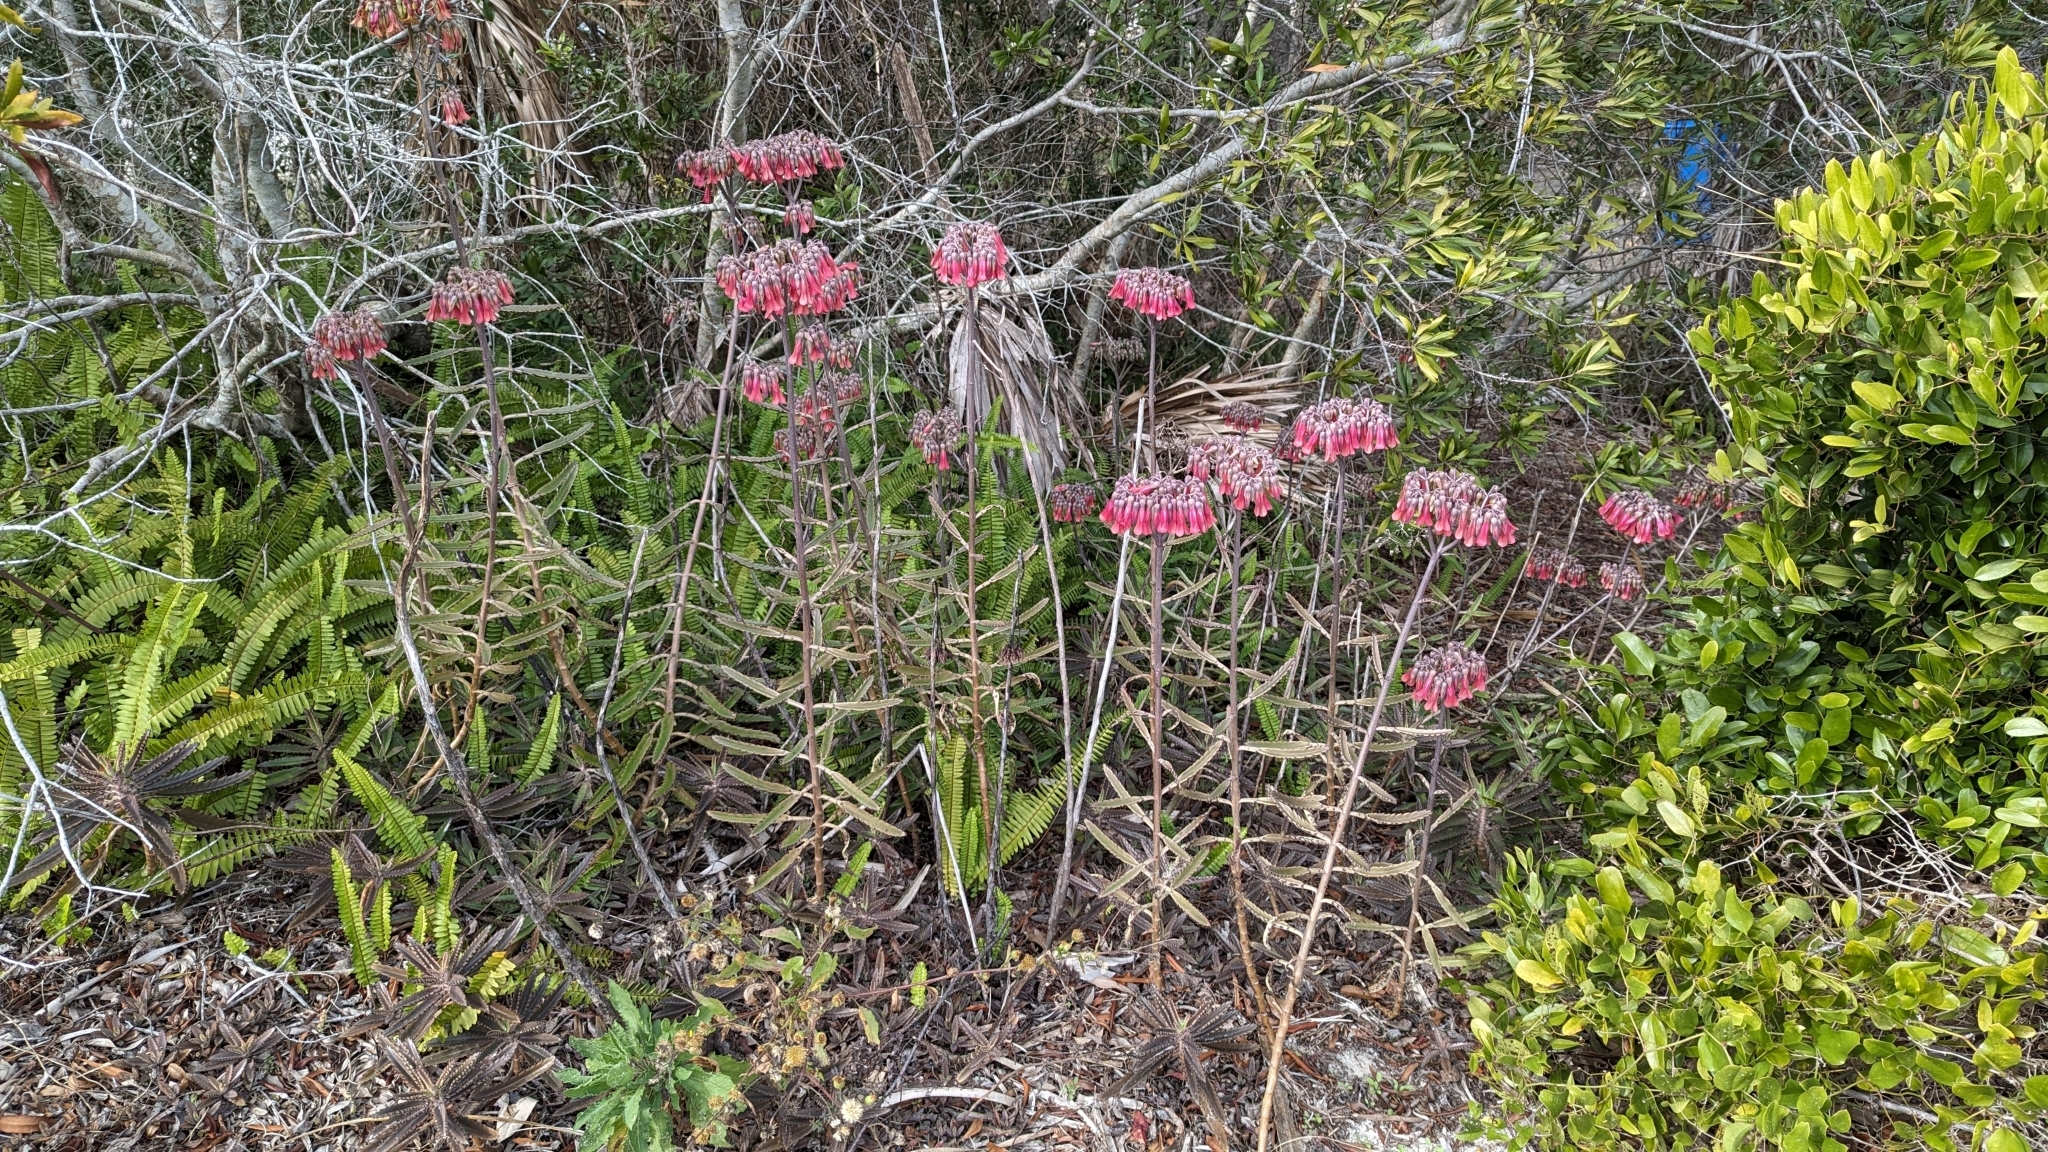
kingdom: Plantae
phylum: Tracheophyta
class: Magnoliopsida
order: Saxifragales
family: Crassulaceae
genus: Kalanchoe
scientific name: Kalanchoe houghtonii
